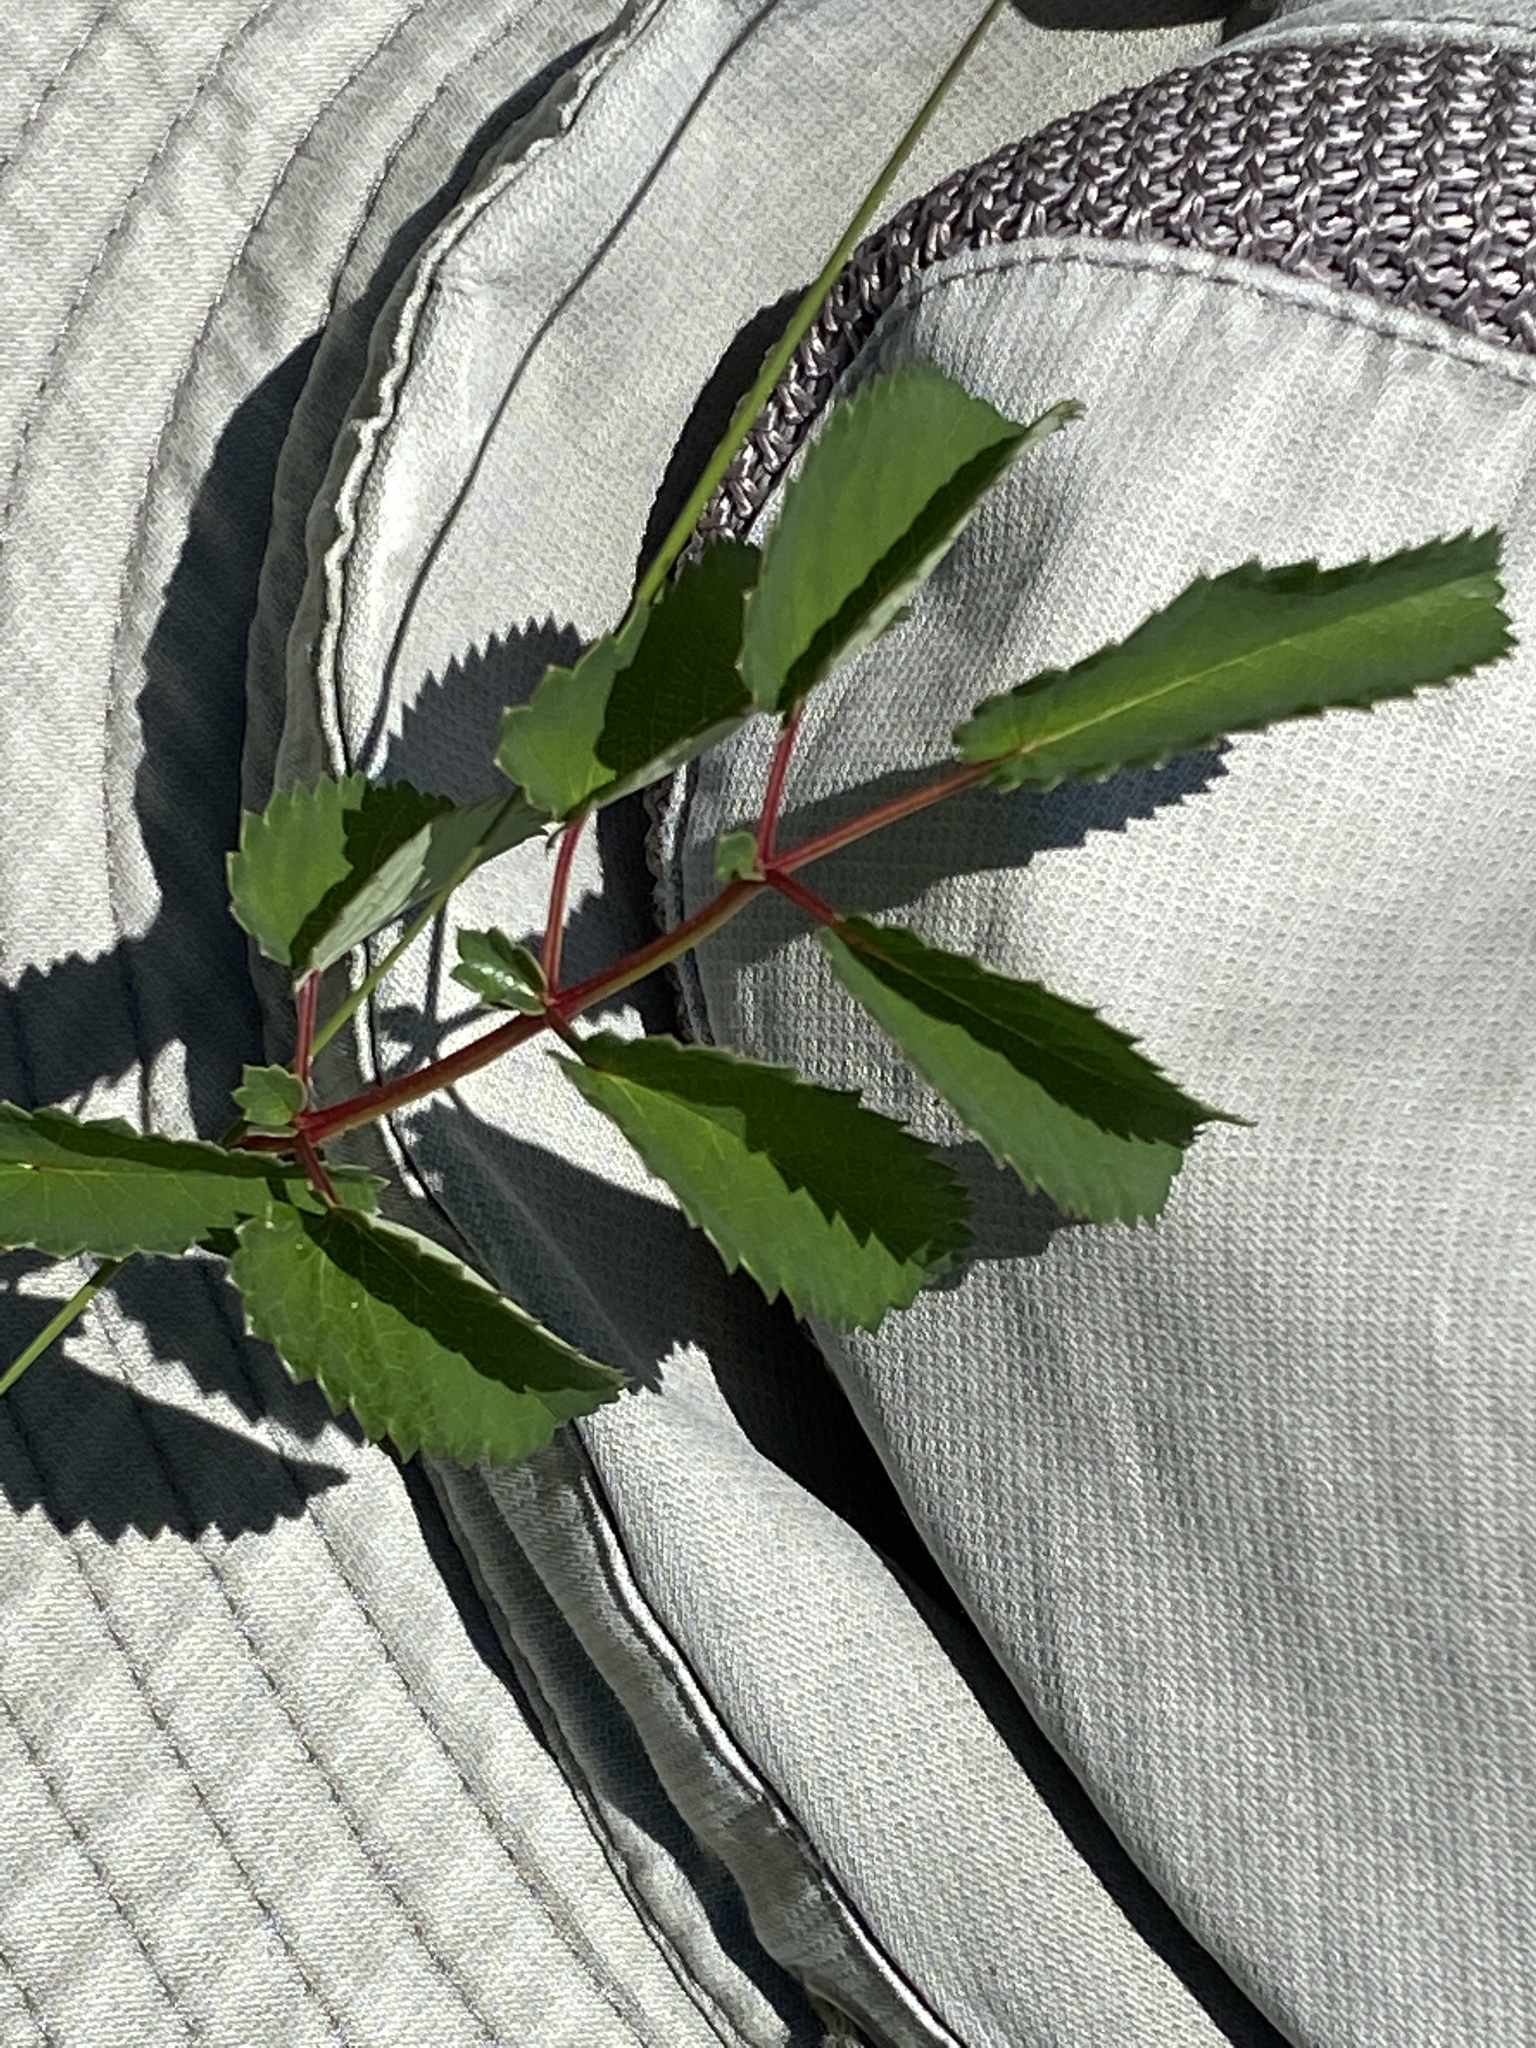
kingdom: Plantae
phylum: Tracheophyta
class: Magnoliopsida
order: Rosales
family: Rosaceae
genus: Sanguisorba
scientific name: Sanguisorba officinalis
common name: Great burnet
